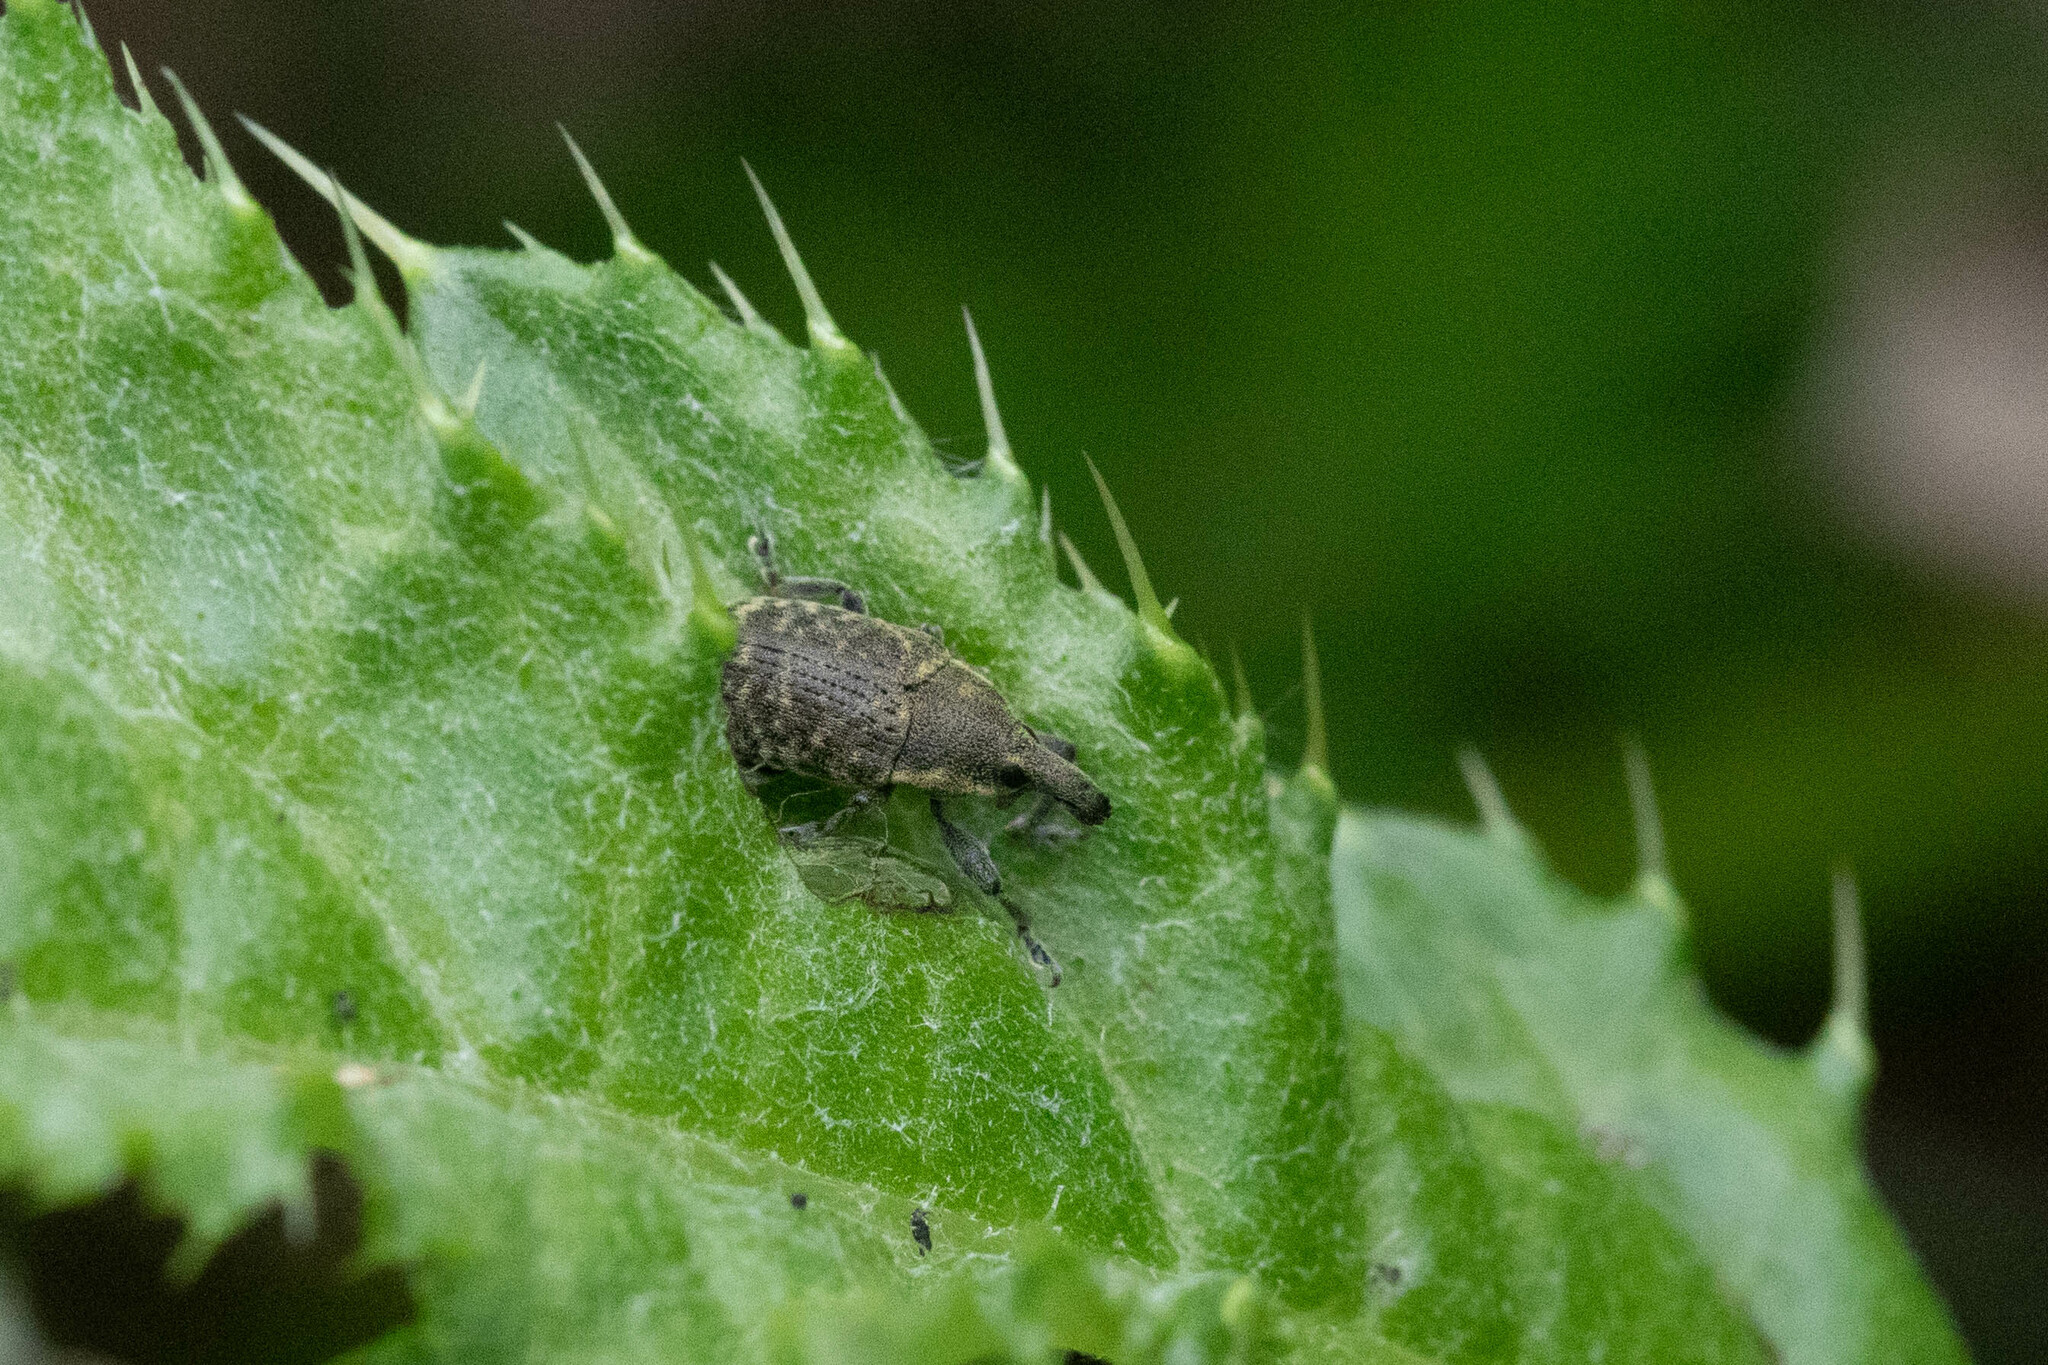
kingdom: Animalia
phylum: Arthropoda
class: Insecta
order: Coleoptera
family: Curculionidae
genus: Larinus
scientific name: Larinus carlinae
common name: Weevil
